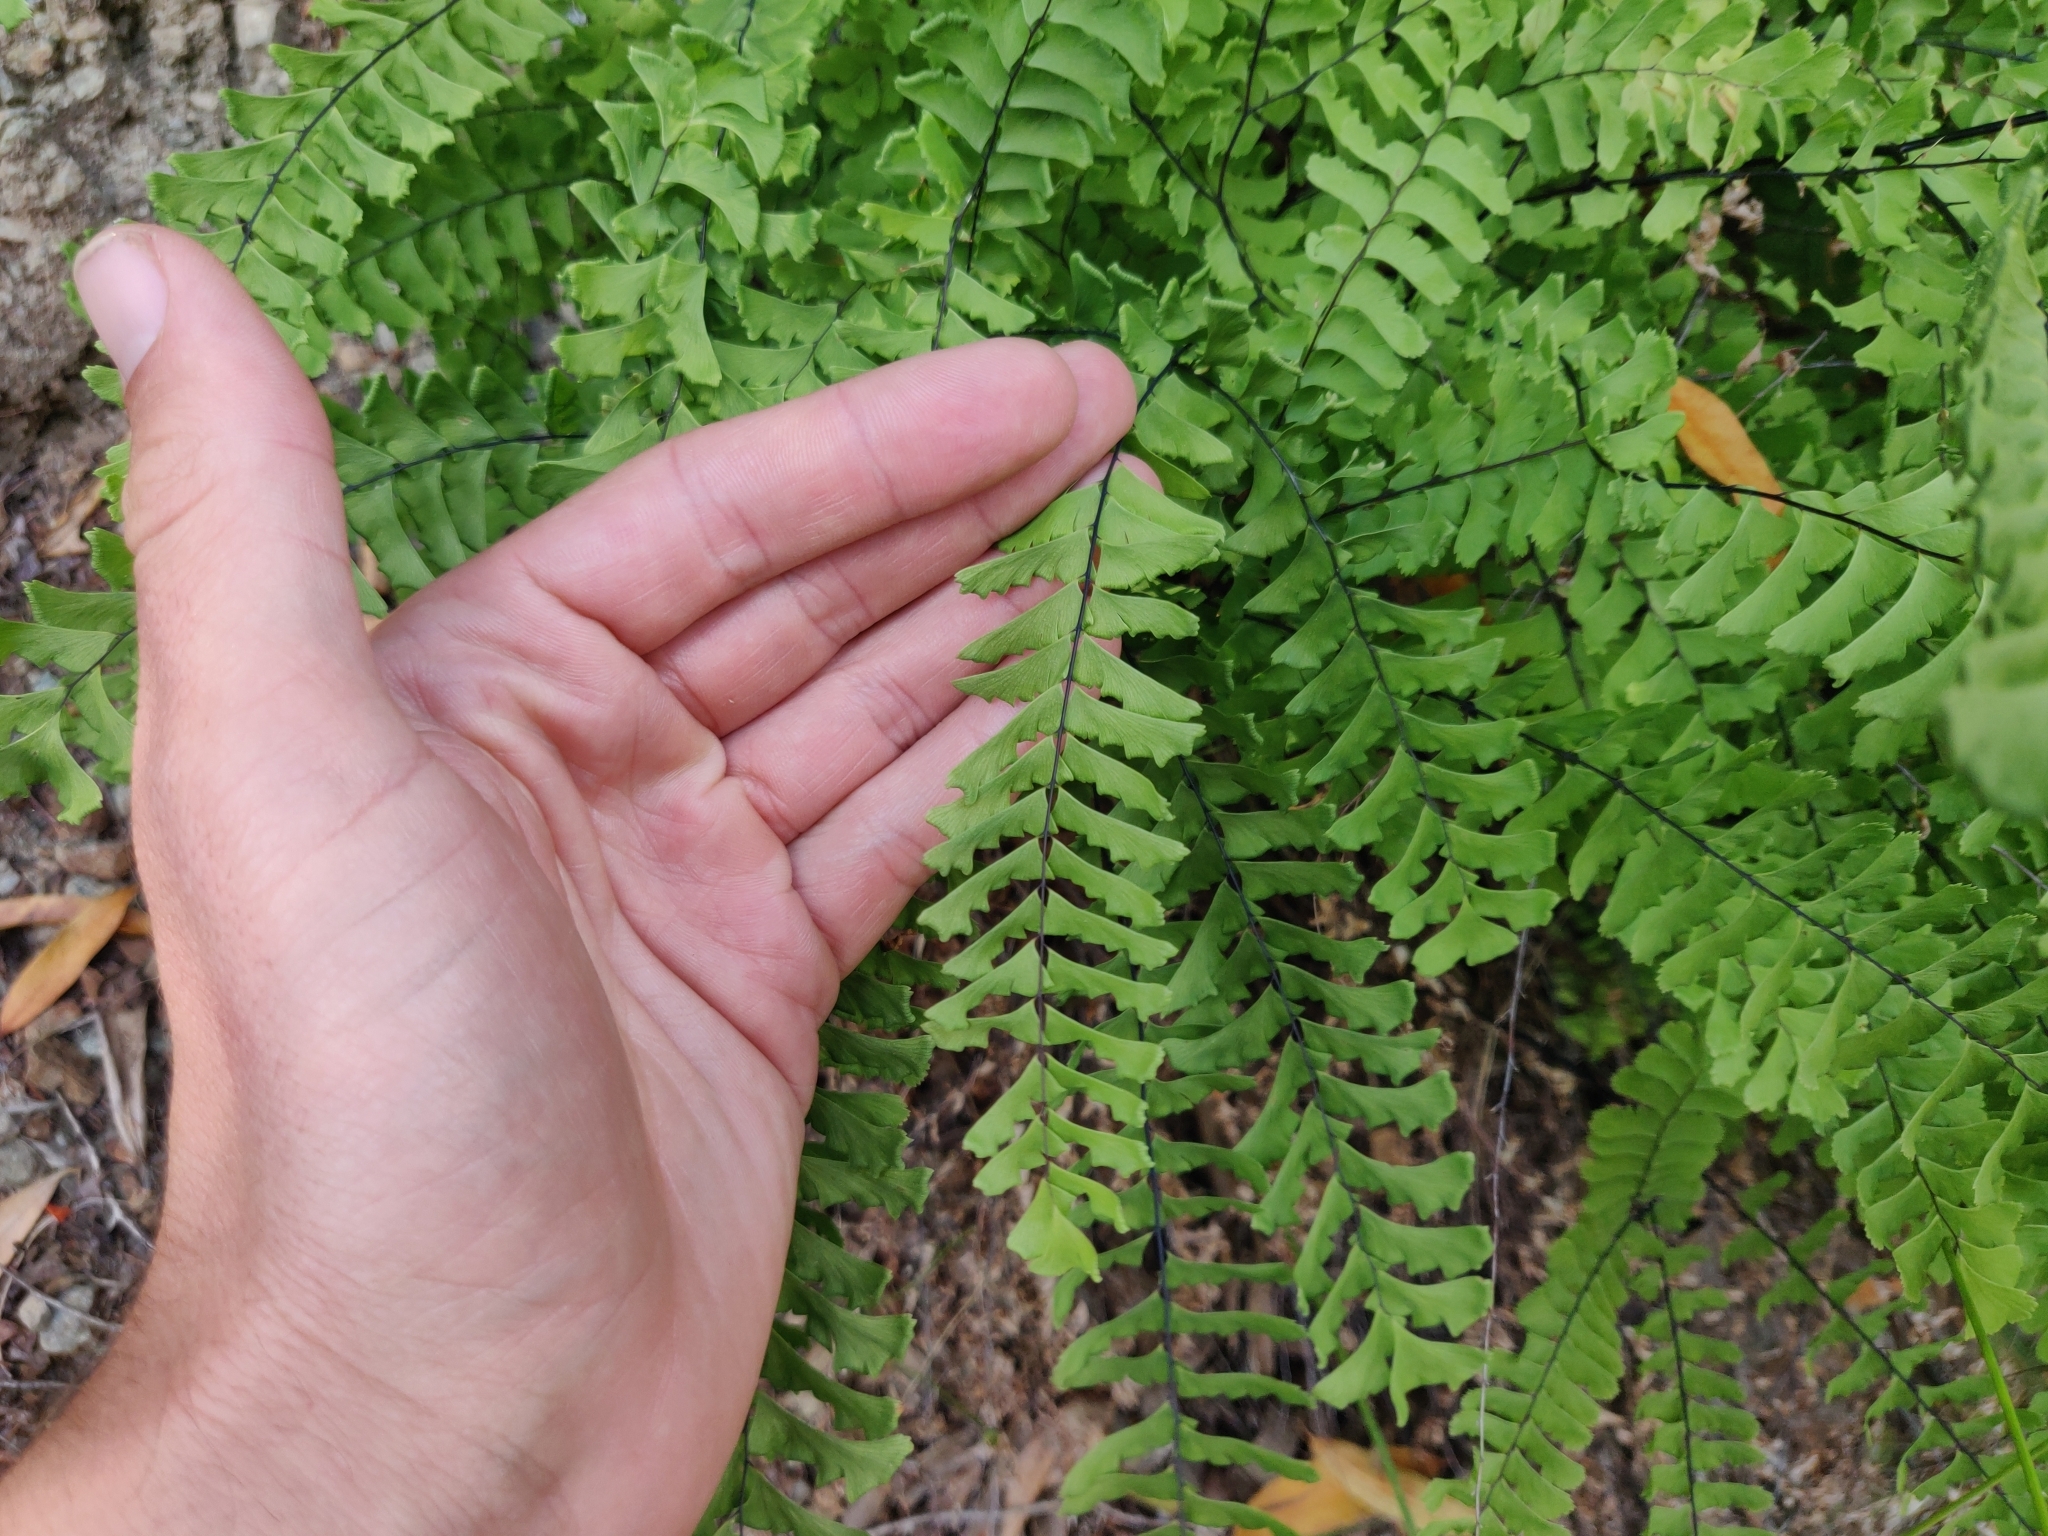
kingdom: Plantae
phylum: Tracheophyta
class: Polypodiopsida
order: Polypodiales
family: Pteridaceae
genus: Adiantum
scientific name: Adiantum aleuticum
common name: Aleutian maidenhair fern
